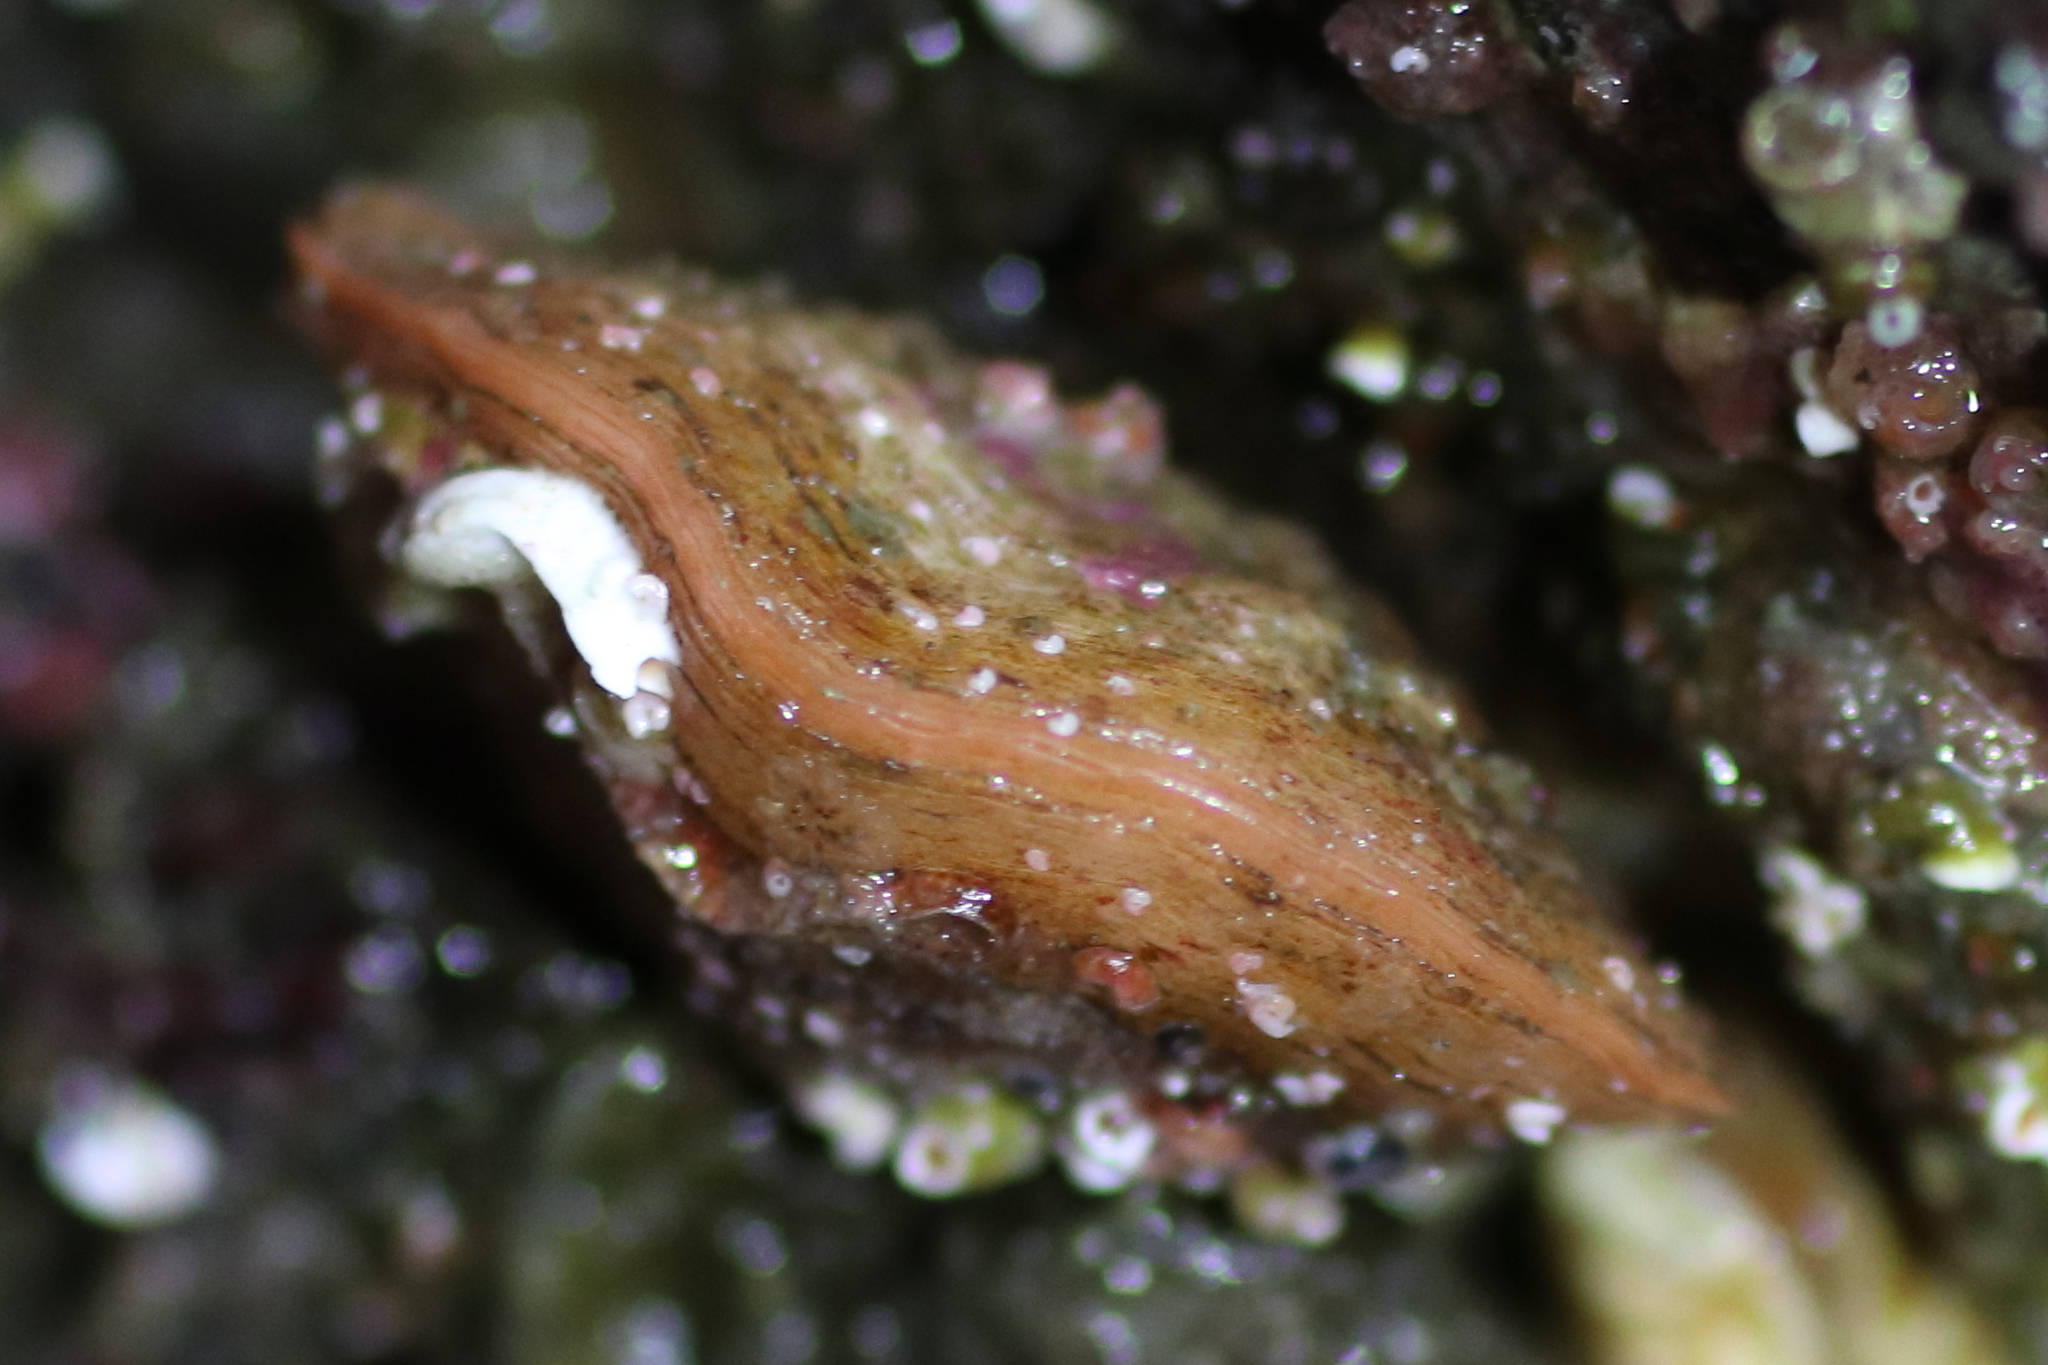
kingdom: Animalia
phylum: Brachiopoda
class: Rhynchonellata
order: Terebratulida
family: Terebrataliidae
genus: Terebratalia
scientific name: Terebratalia transversa
